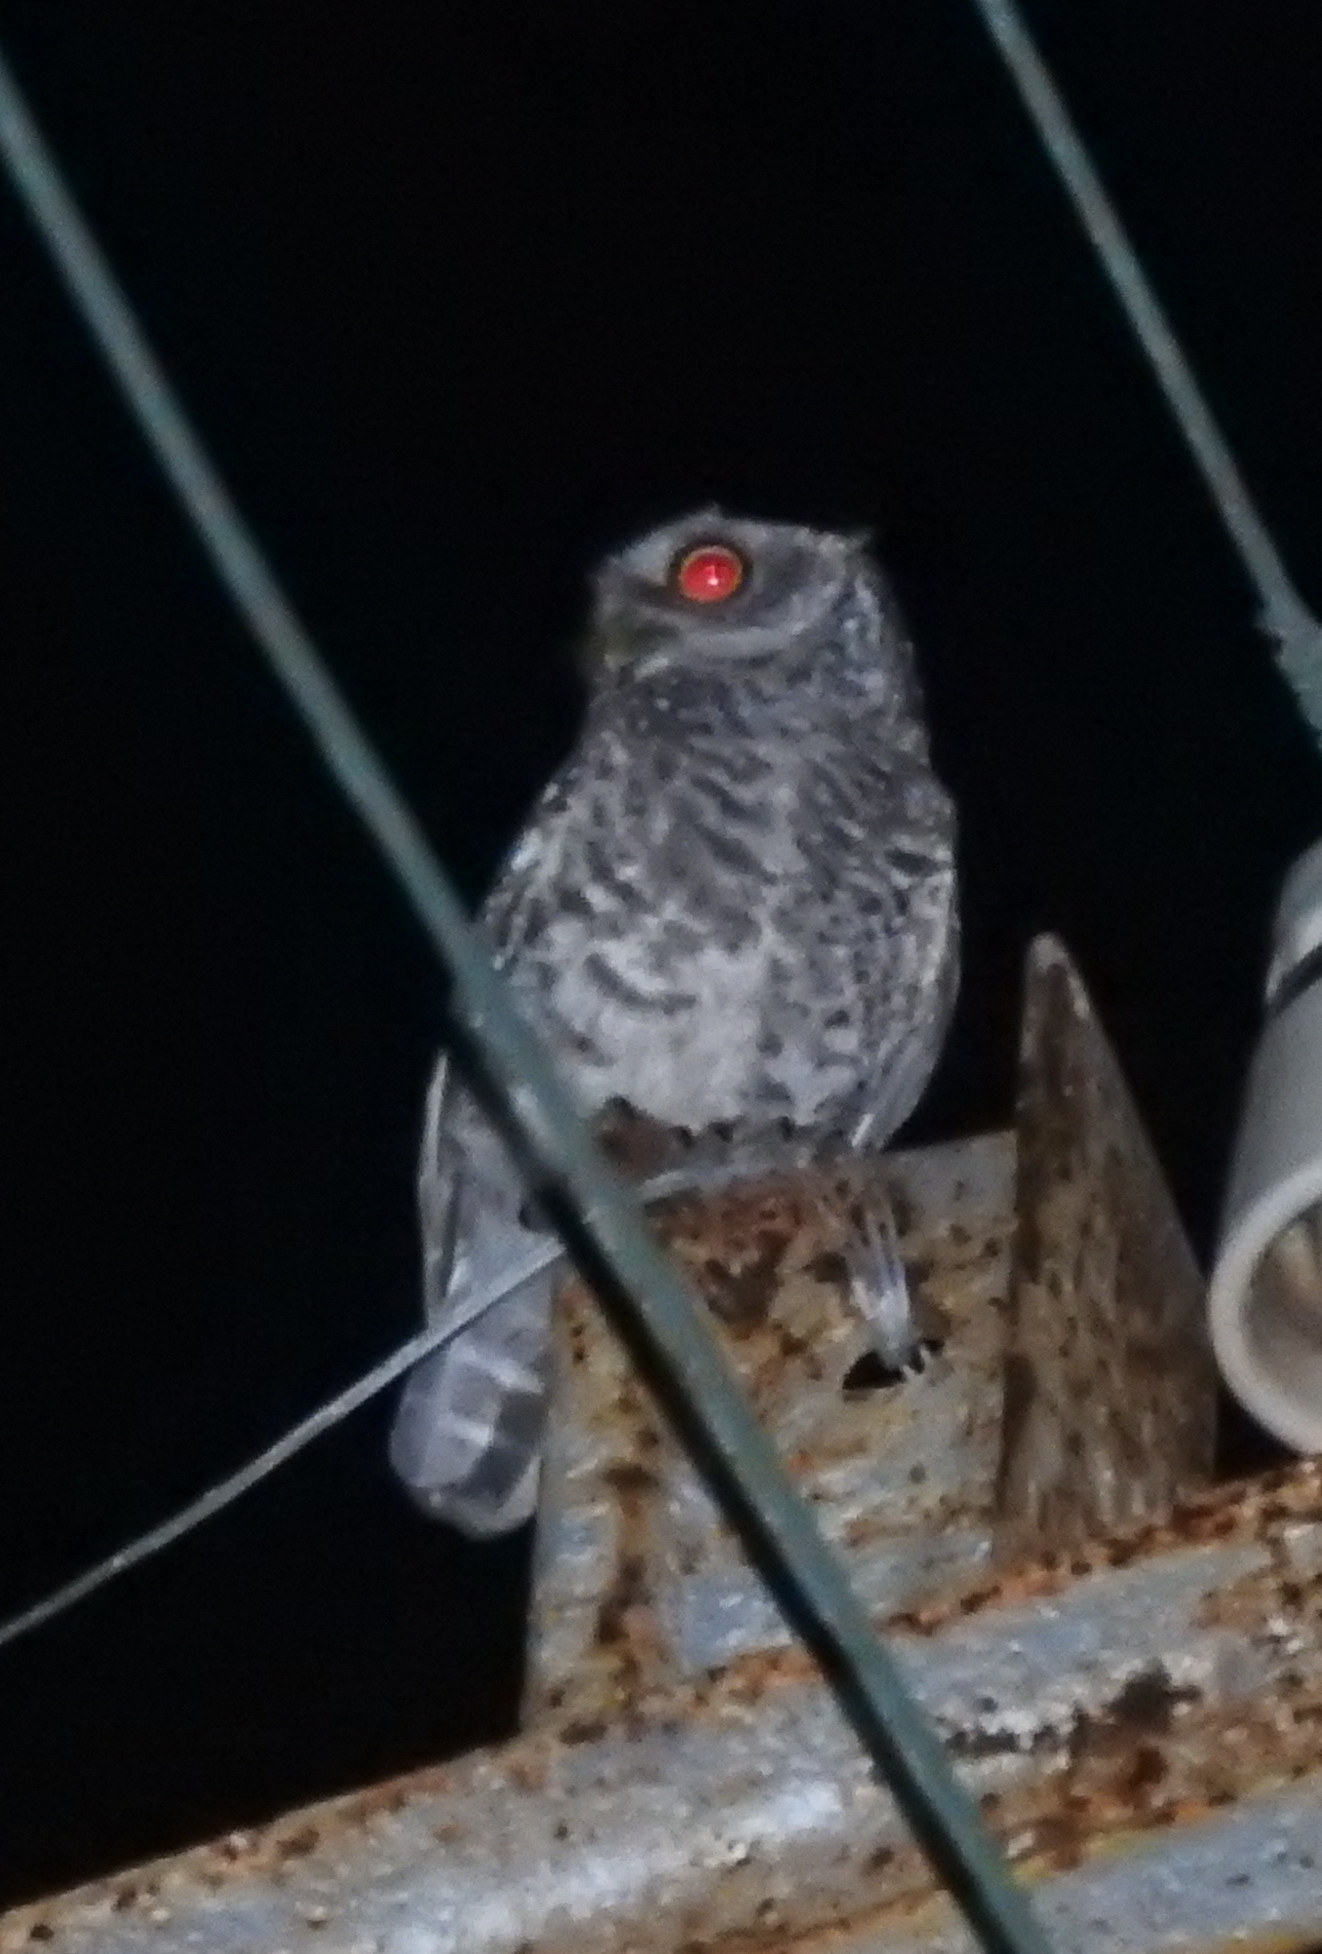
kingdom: Animalia
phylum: Chordata
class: Aves
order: Strigiformes
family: Strigidae
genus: Athene
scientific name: Athene brama
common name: Spotted owlet
